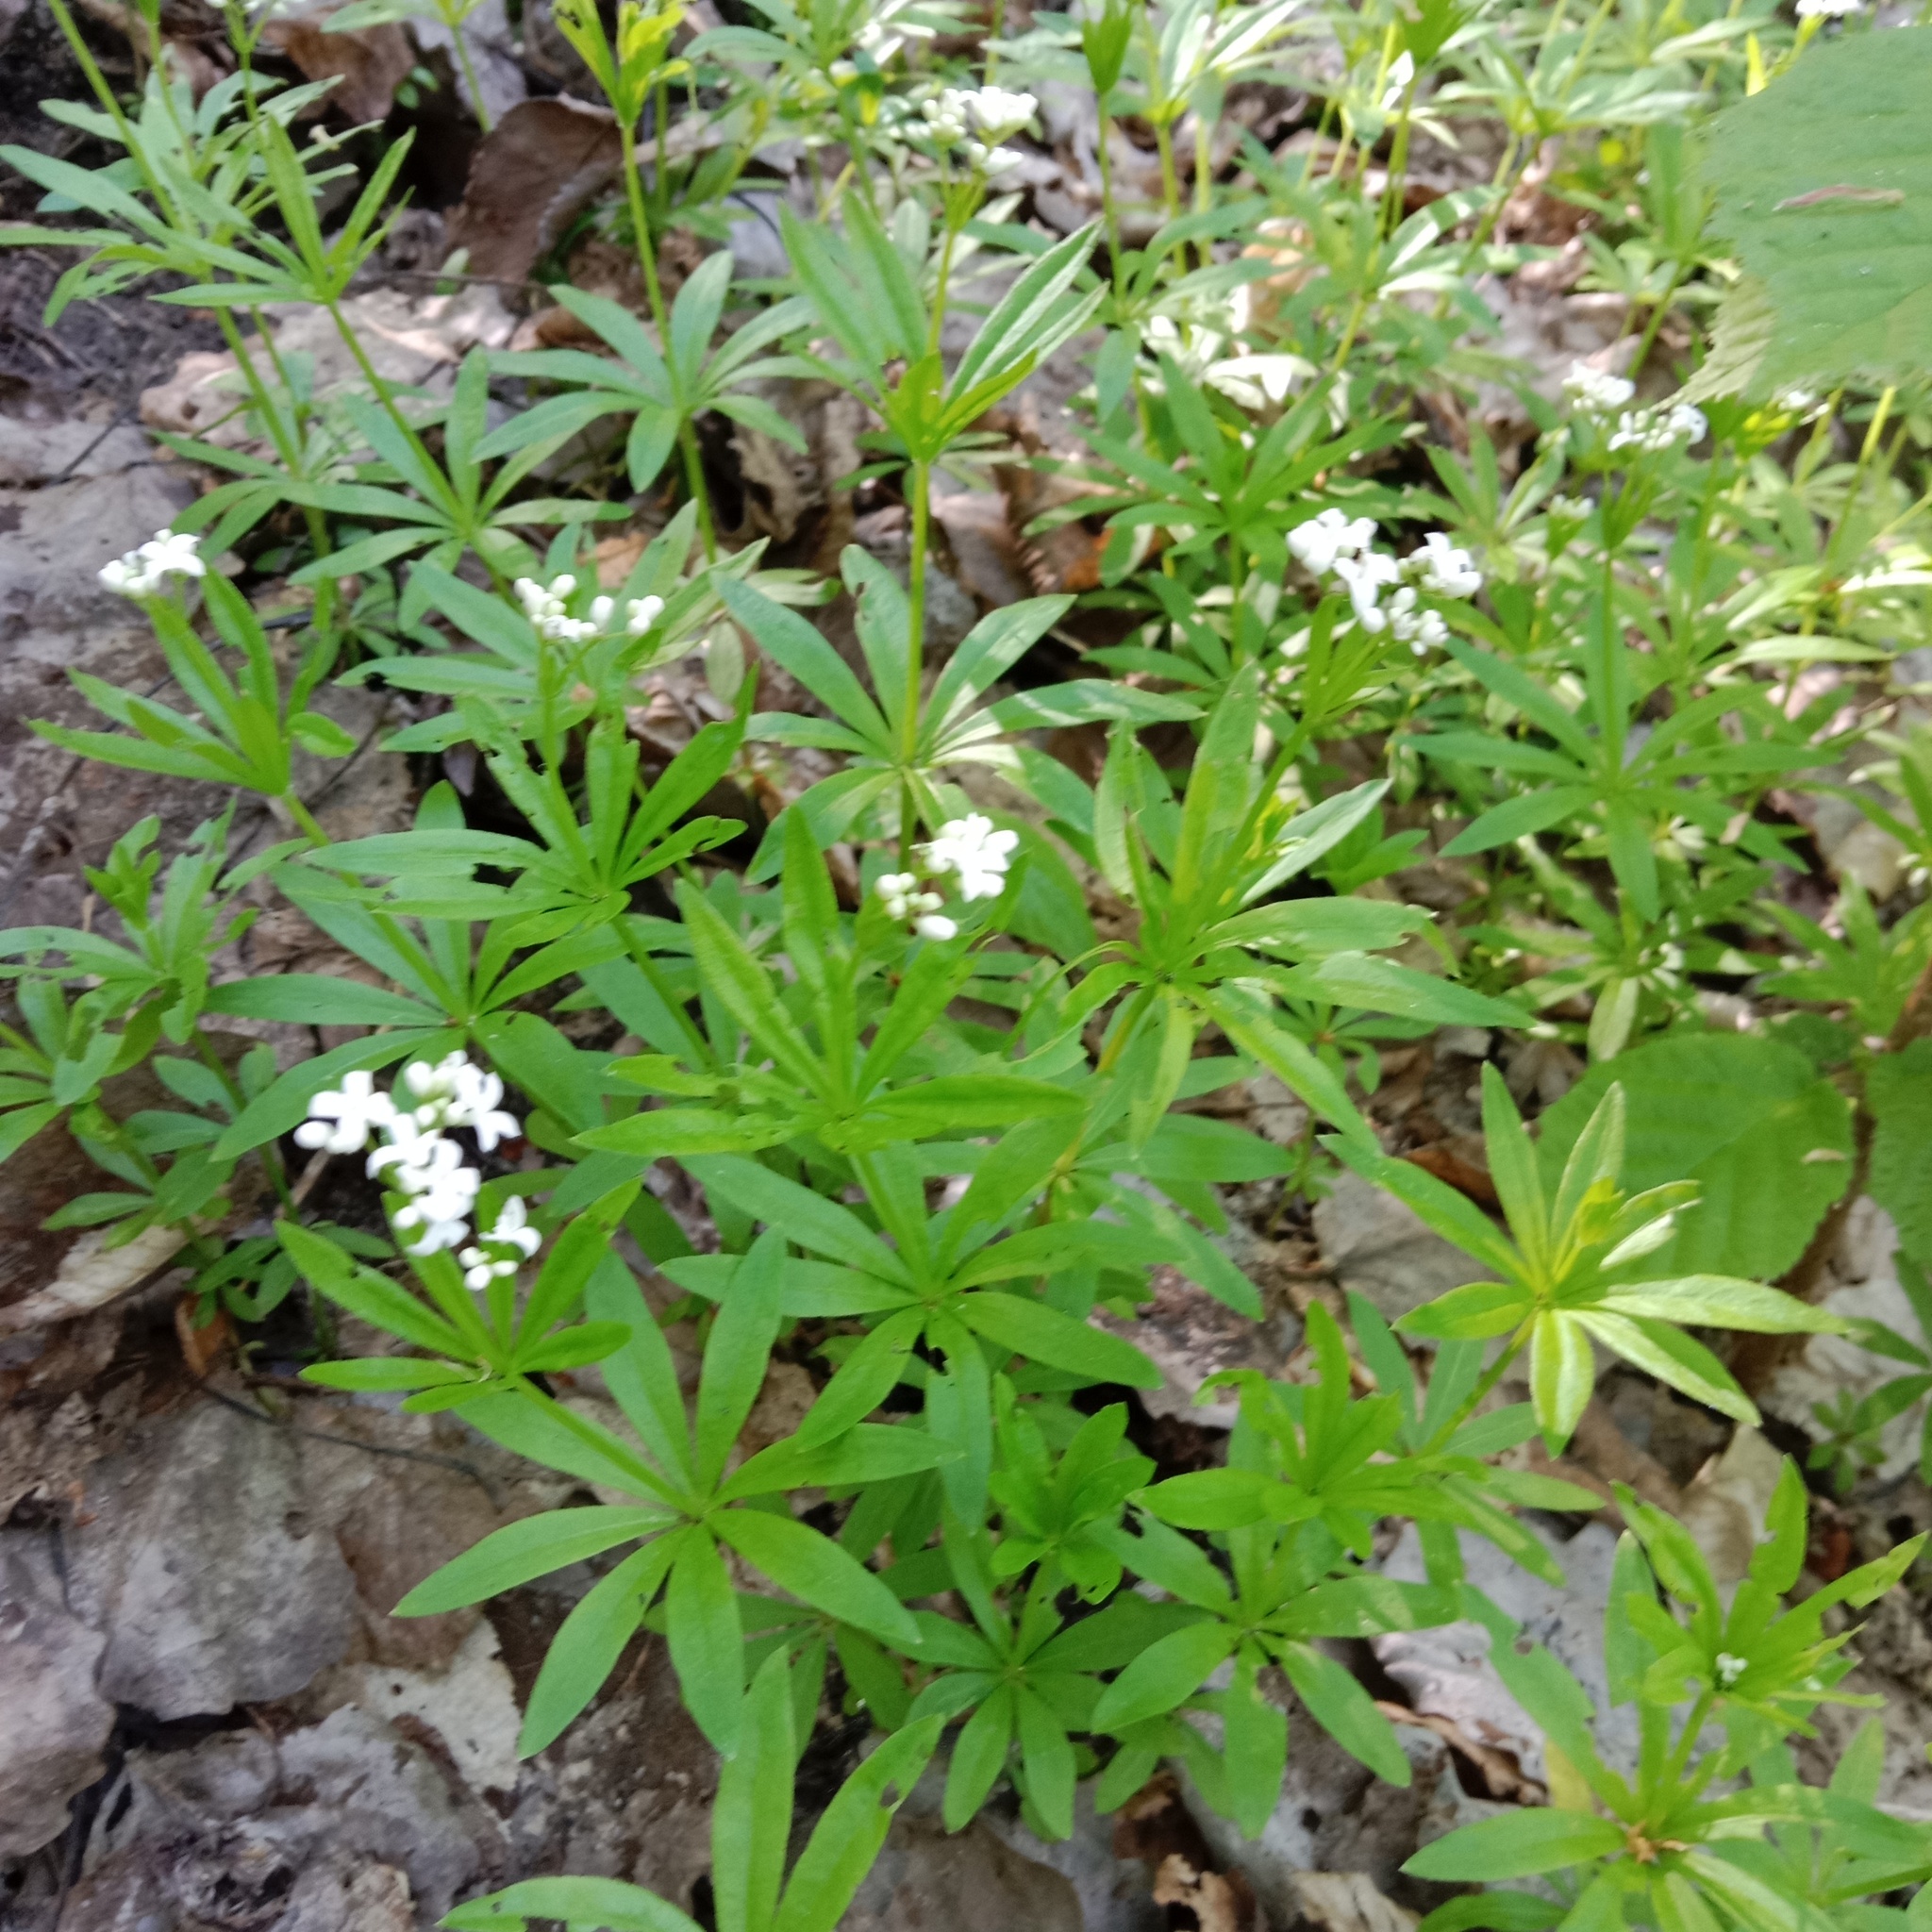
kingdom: Plantae
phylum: Tracheophyta
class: Magnoliopsida
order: Gentianales
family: Rubiaceae
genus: Galium
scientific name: Galium odoratum
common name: Sweet woodruff
